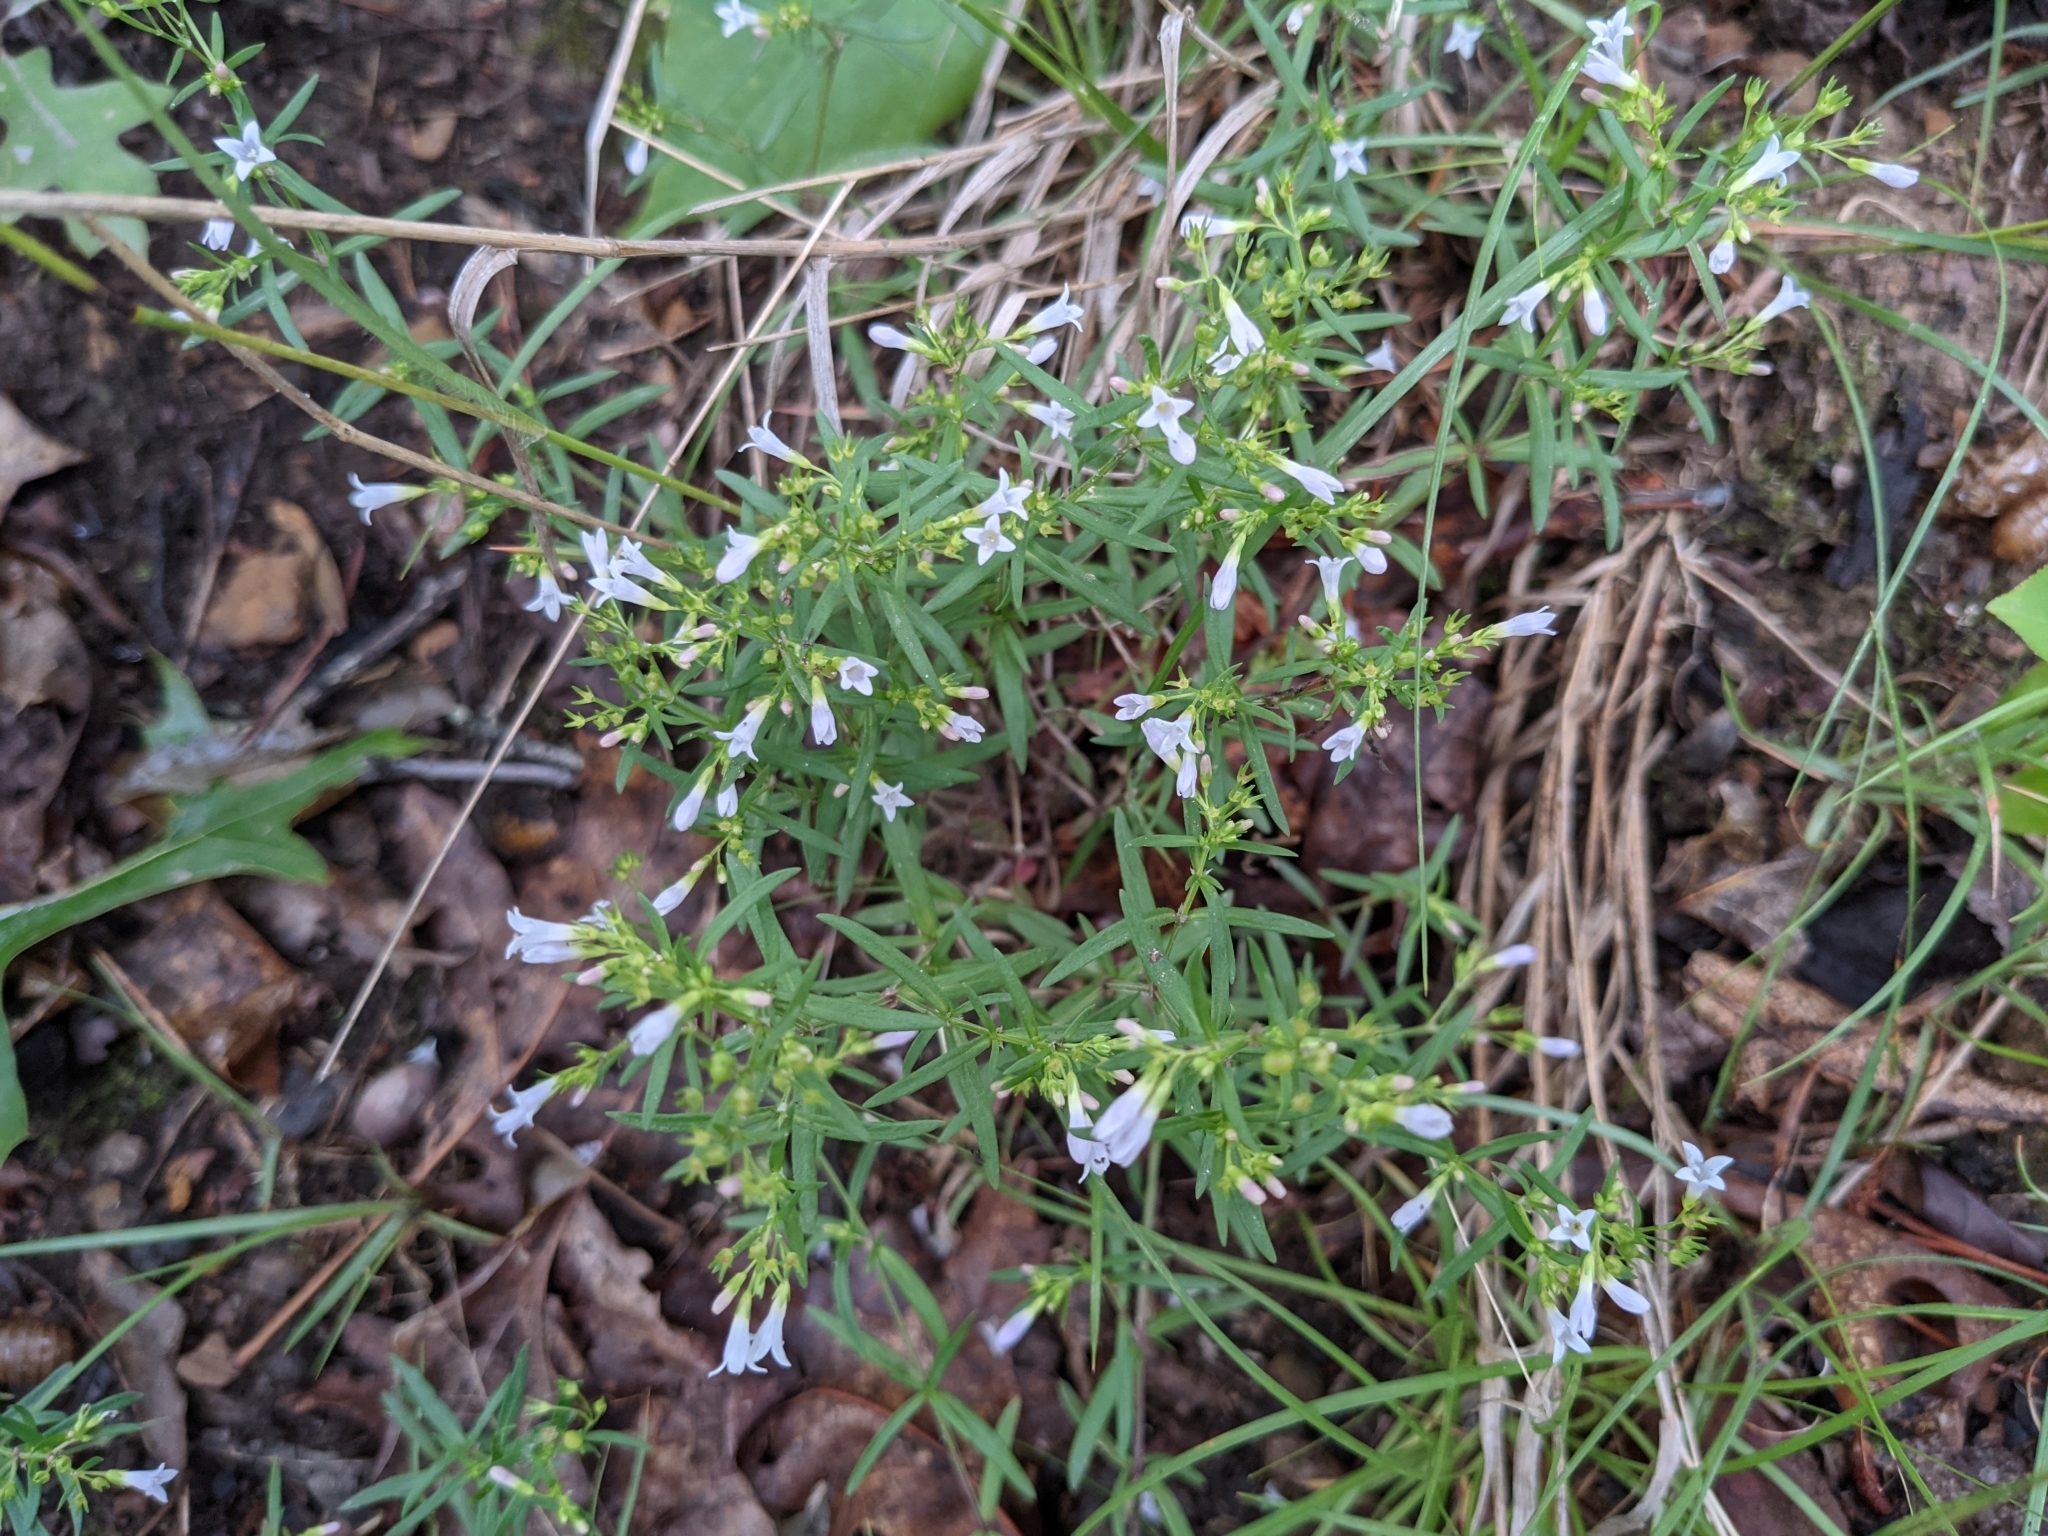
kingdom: Plantae
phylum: Tracheophyta
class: Magnoliopsida
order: Gentianales
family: Rubiaceae
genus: Houstonia
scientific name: Houstonia longifolia
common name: Long-leaved bluets
